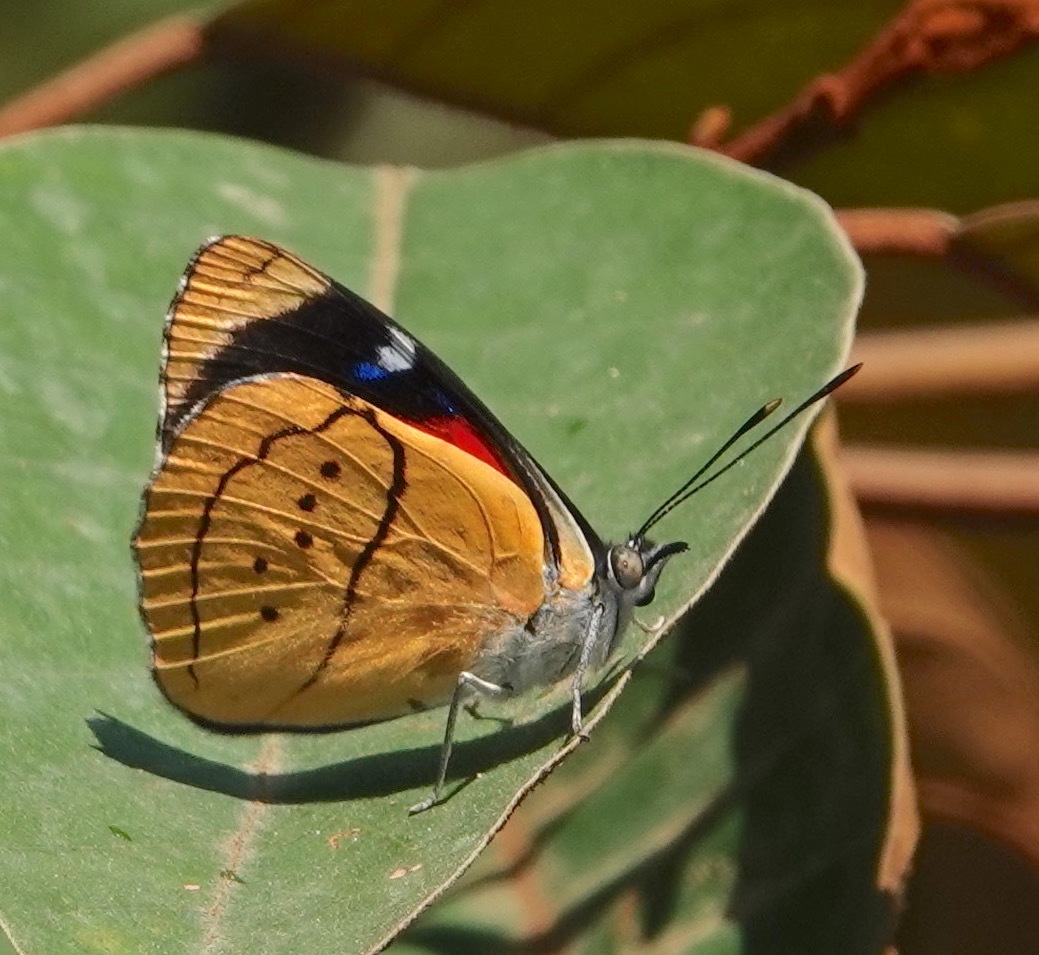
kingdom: Animalia
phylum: Arthropoda
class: Insecta
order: Lepidoptera
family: Nymphalidae
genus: Perisama
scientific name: Perisama camelita
